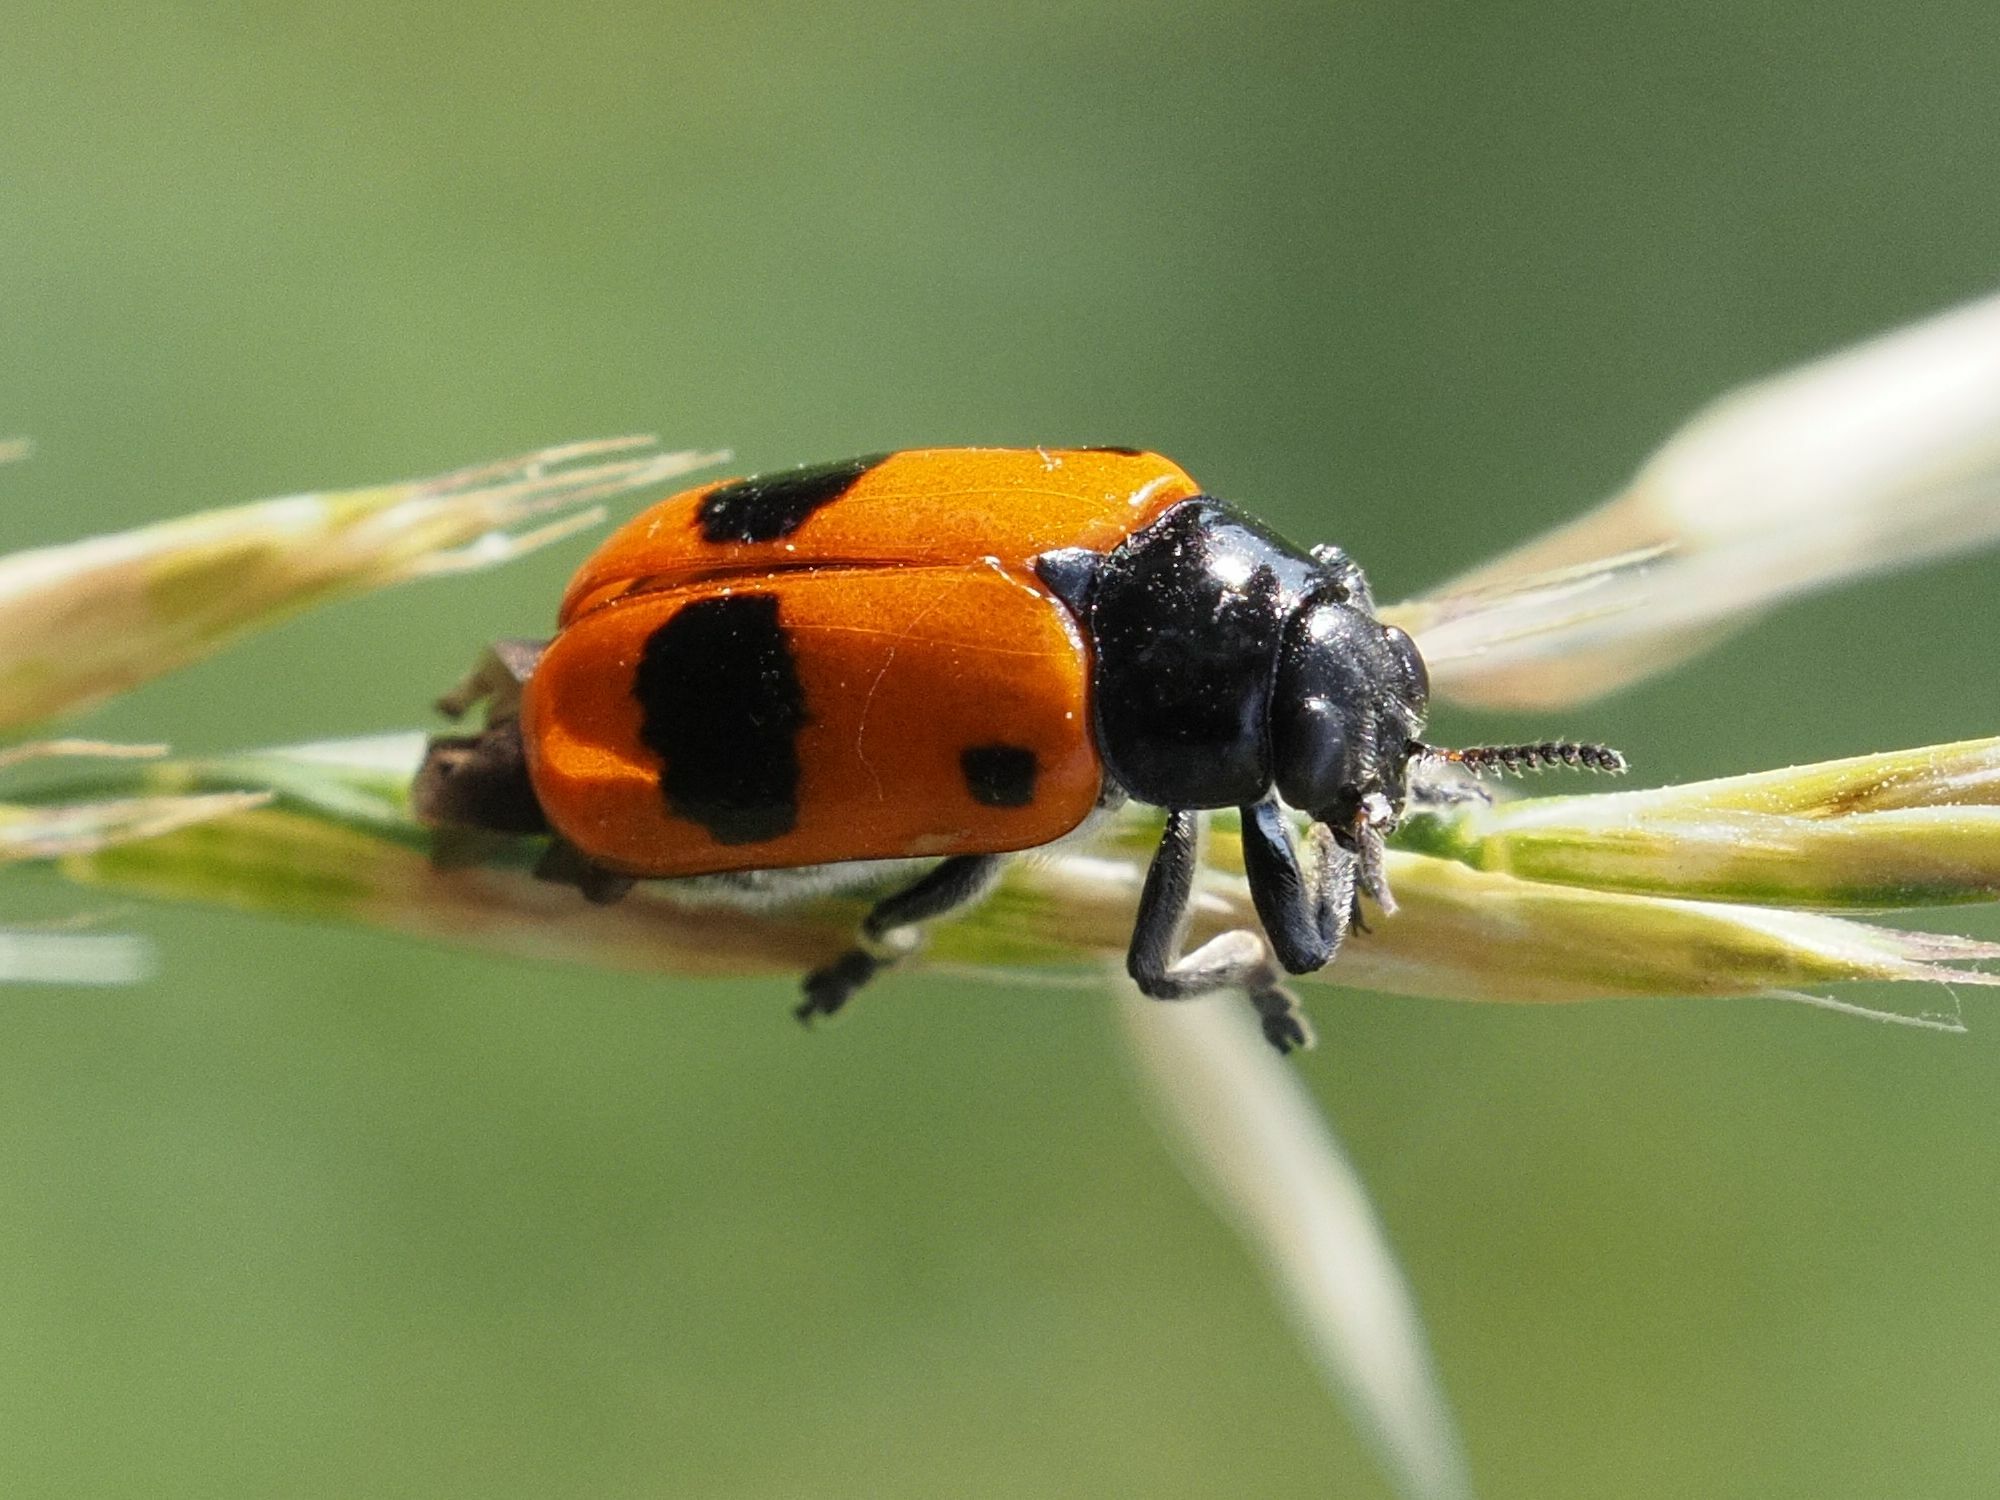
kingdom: Animalia
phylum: Arthropoda
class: Insecta
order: Coleoptera
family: Chrysomelidae
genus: Clytra
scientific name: Clytra laeviuscula
